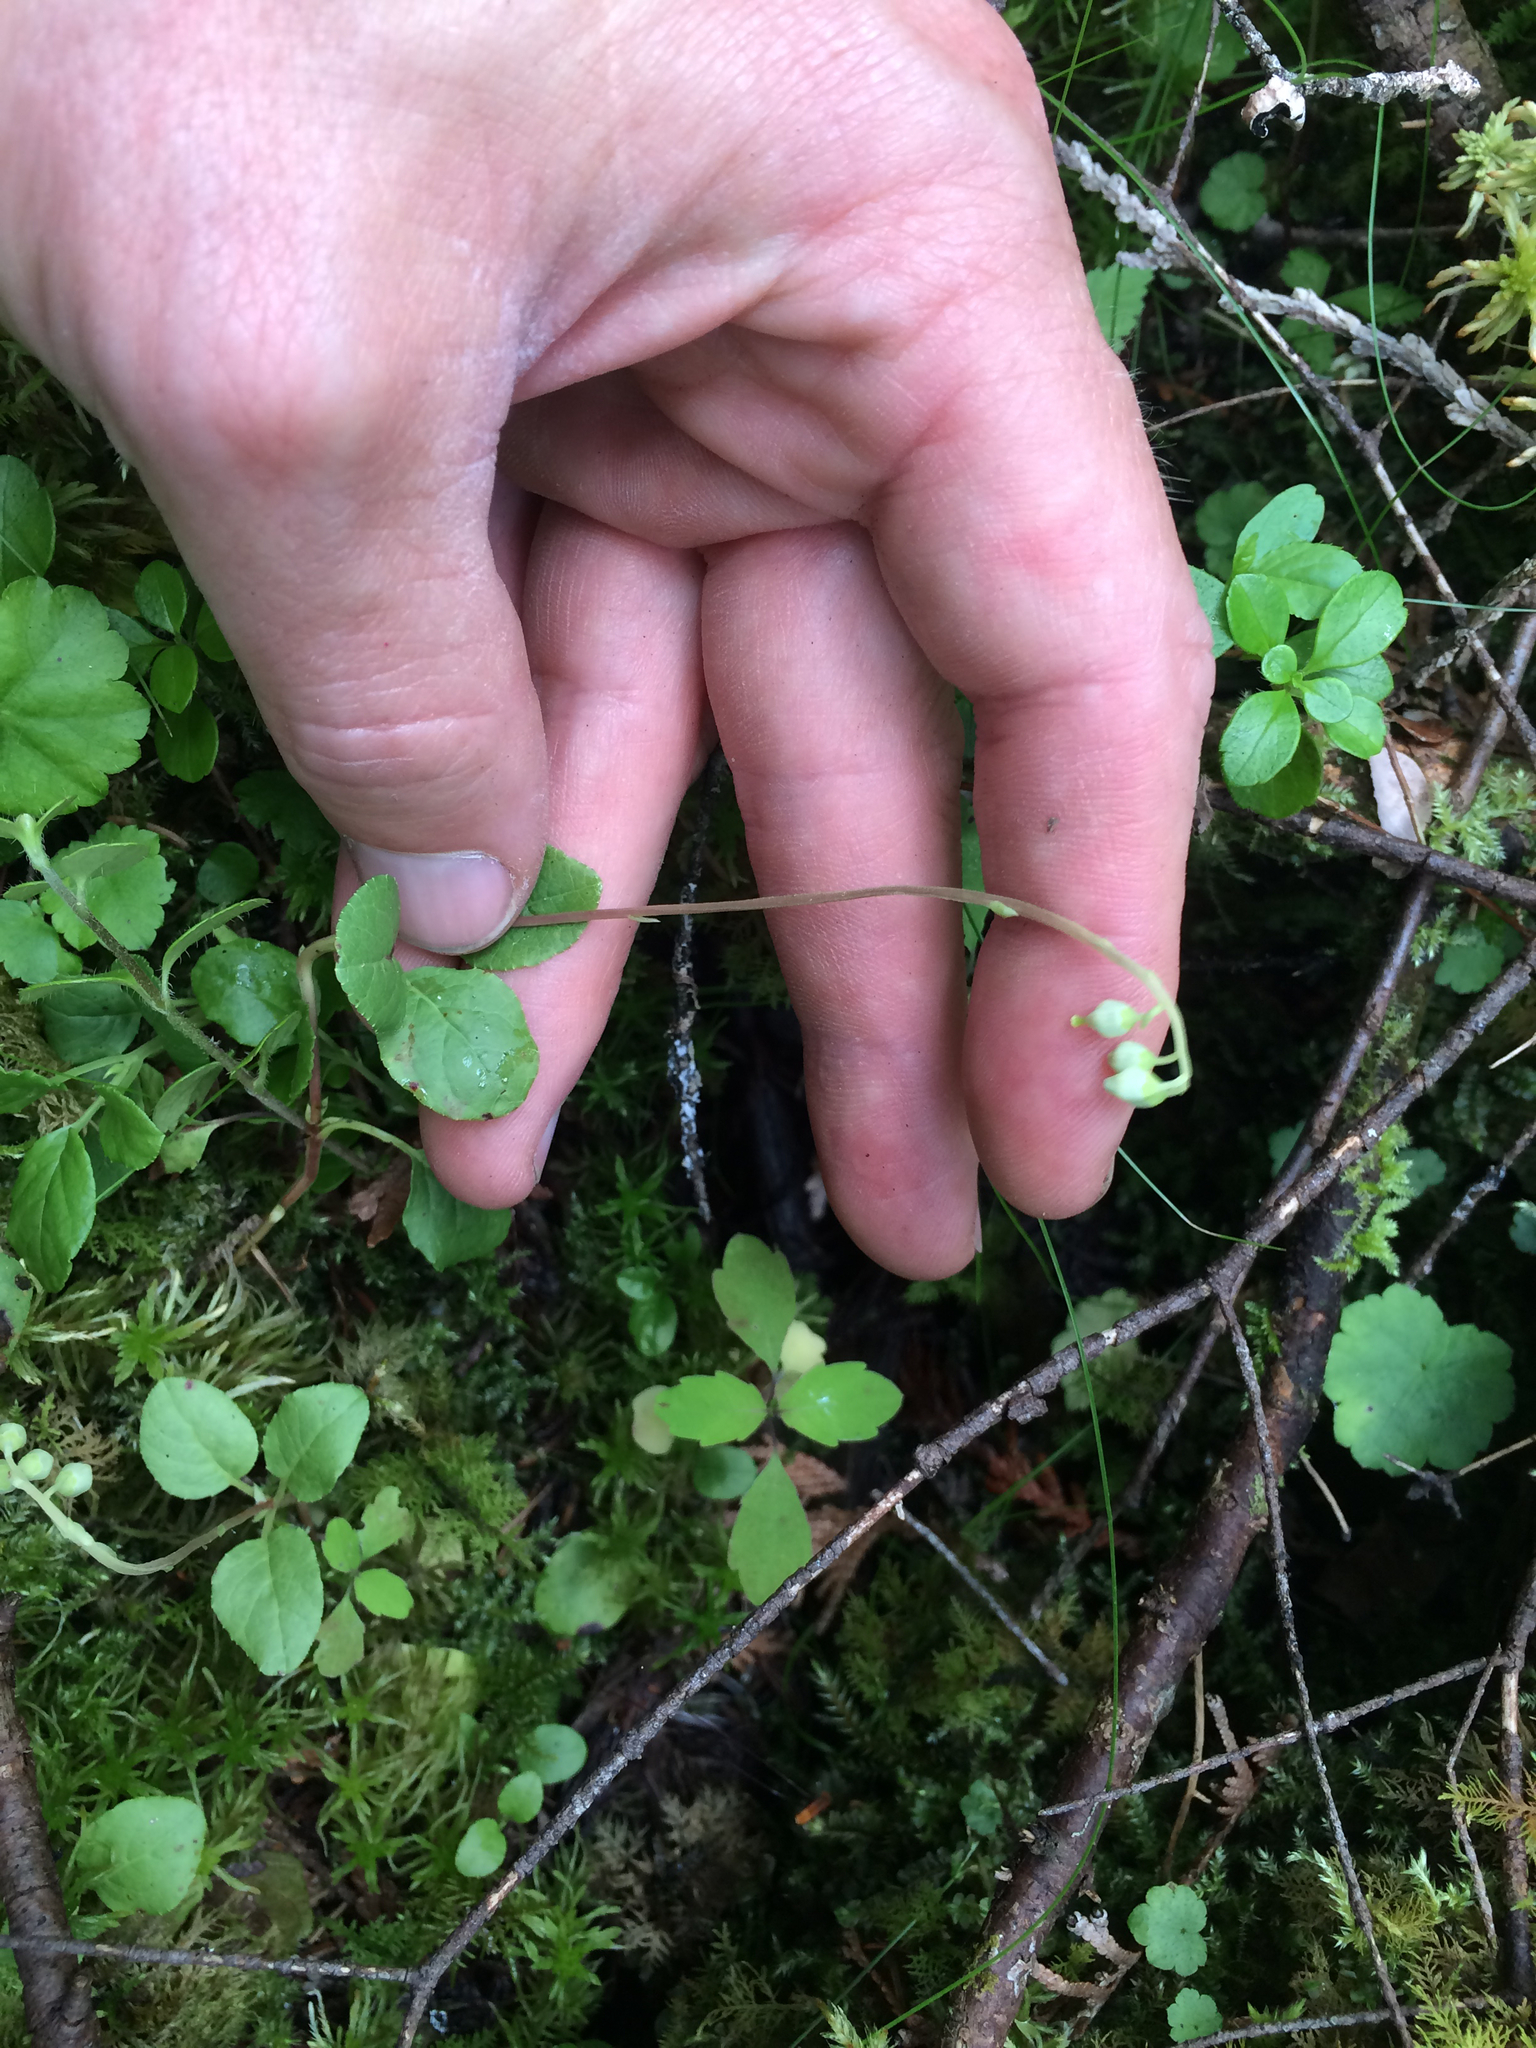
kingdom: Plantae
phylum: Tracheophyta
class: Magnoliopsida
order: Ericales
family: Ericaceae
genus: Orthilia
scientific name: Orthilia secunda
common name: One-sided orthilia
